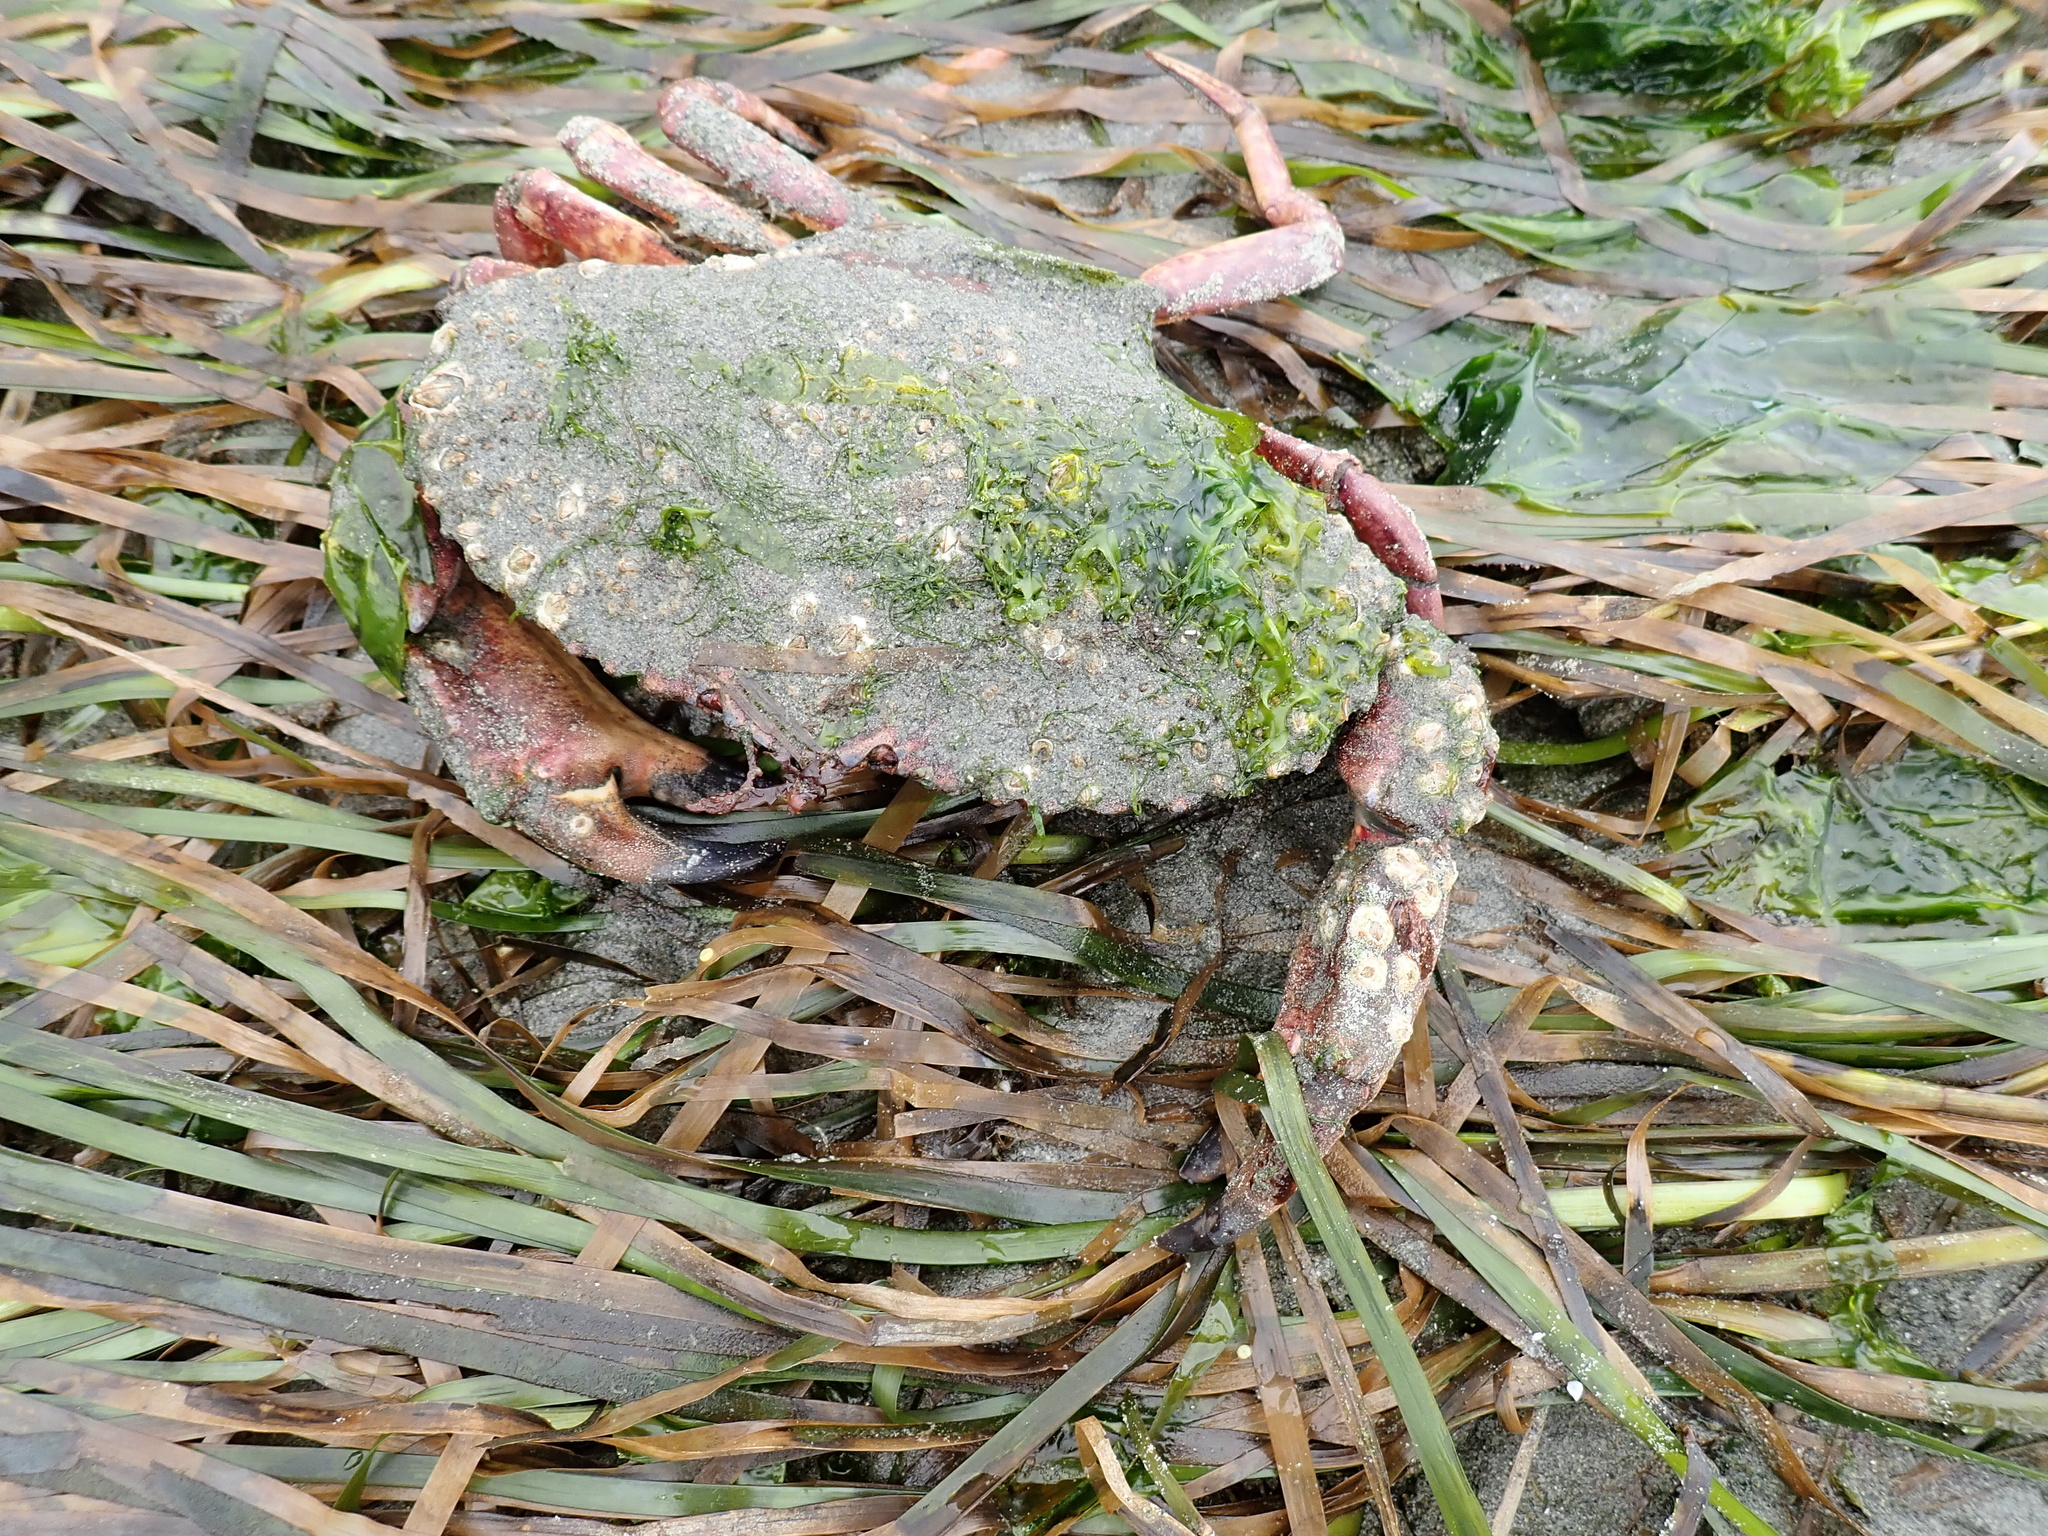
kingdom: Animalia
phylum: Arthropoda
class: Malacostraca
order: Decapoda
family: Cancridae
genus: Cancer
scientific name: Cancer productus
